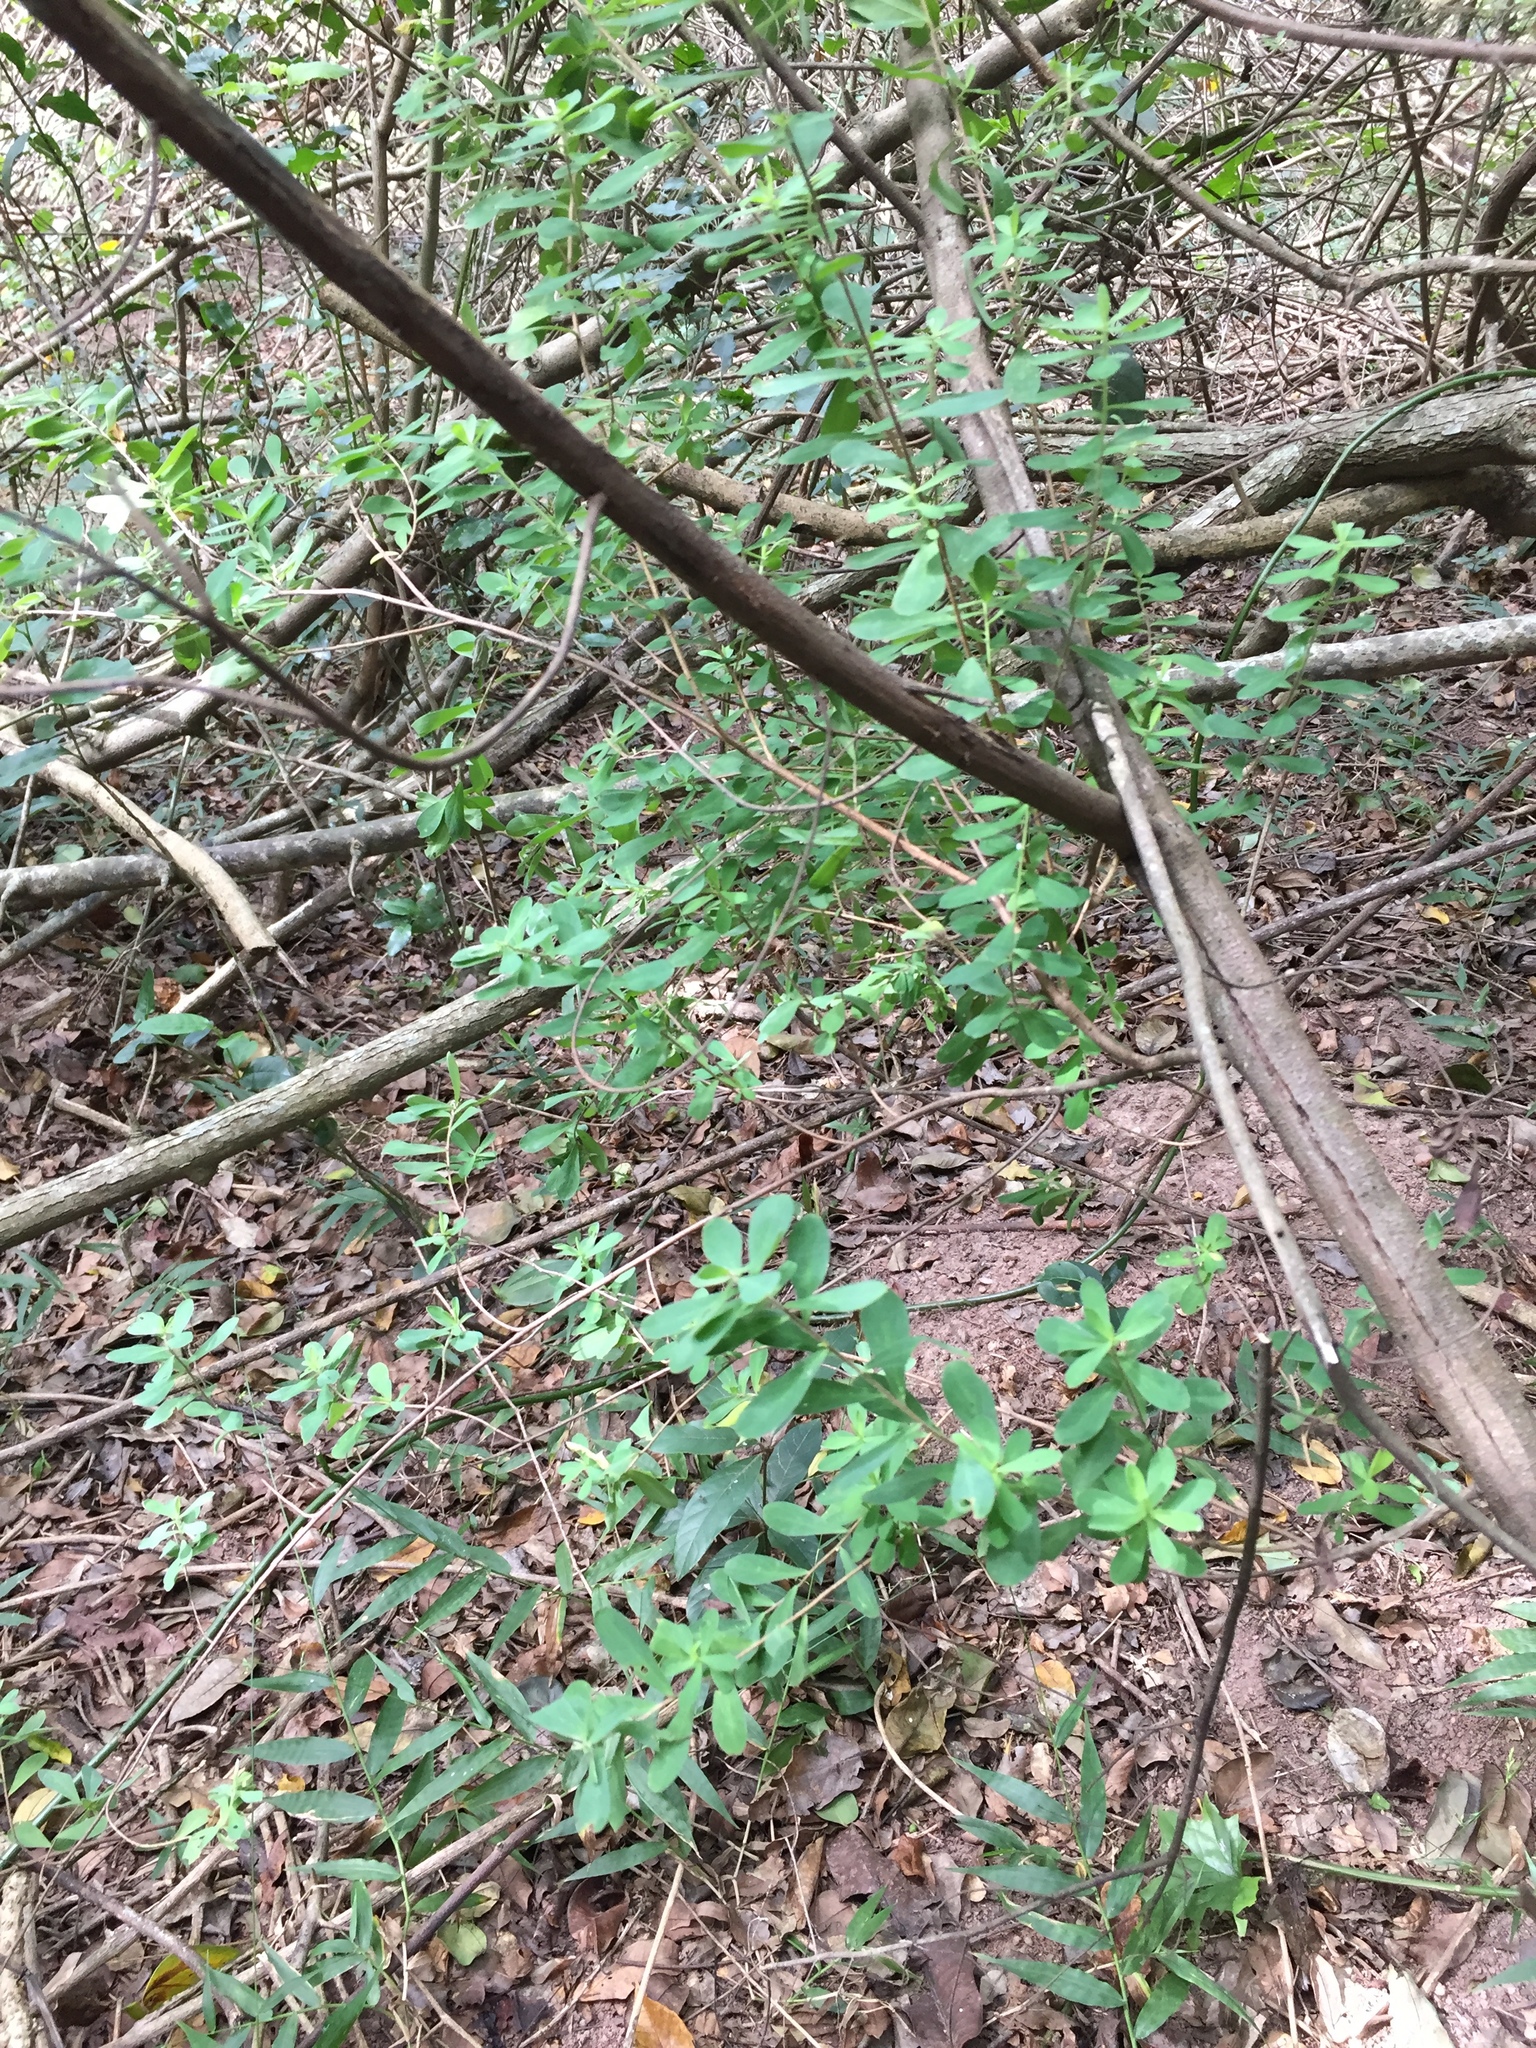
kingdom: Plantae
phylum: Tracheophyta
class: Magnoliopsida
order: Ericales
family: Ebenaceae
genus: Diospyros
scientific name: Diospyros lycioides
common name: Red star apple
